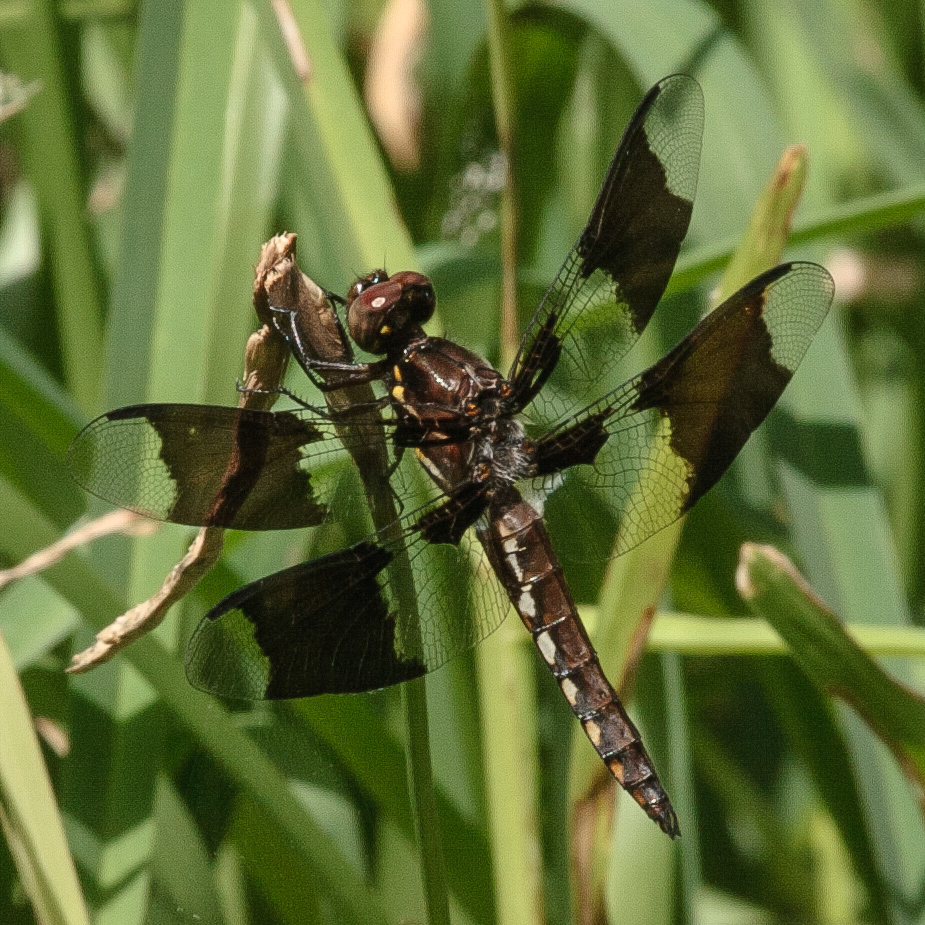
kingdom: Animalia
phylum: Arthropoda
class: Insecta
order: Odonata
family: Libellulidae
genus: Plathemis
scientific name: Plathemis lydia
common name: Common whitetail
